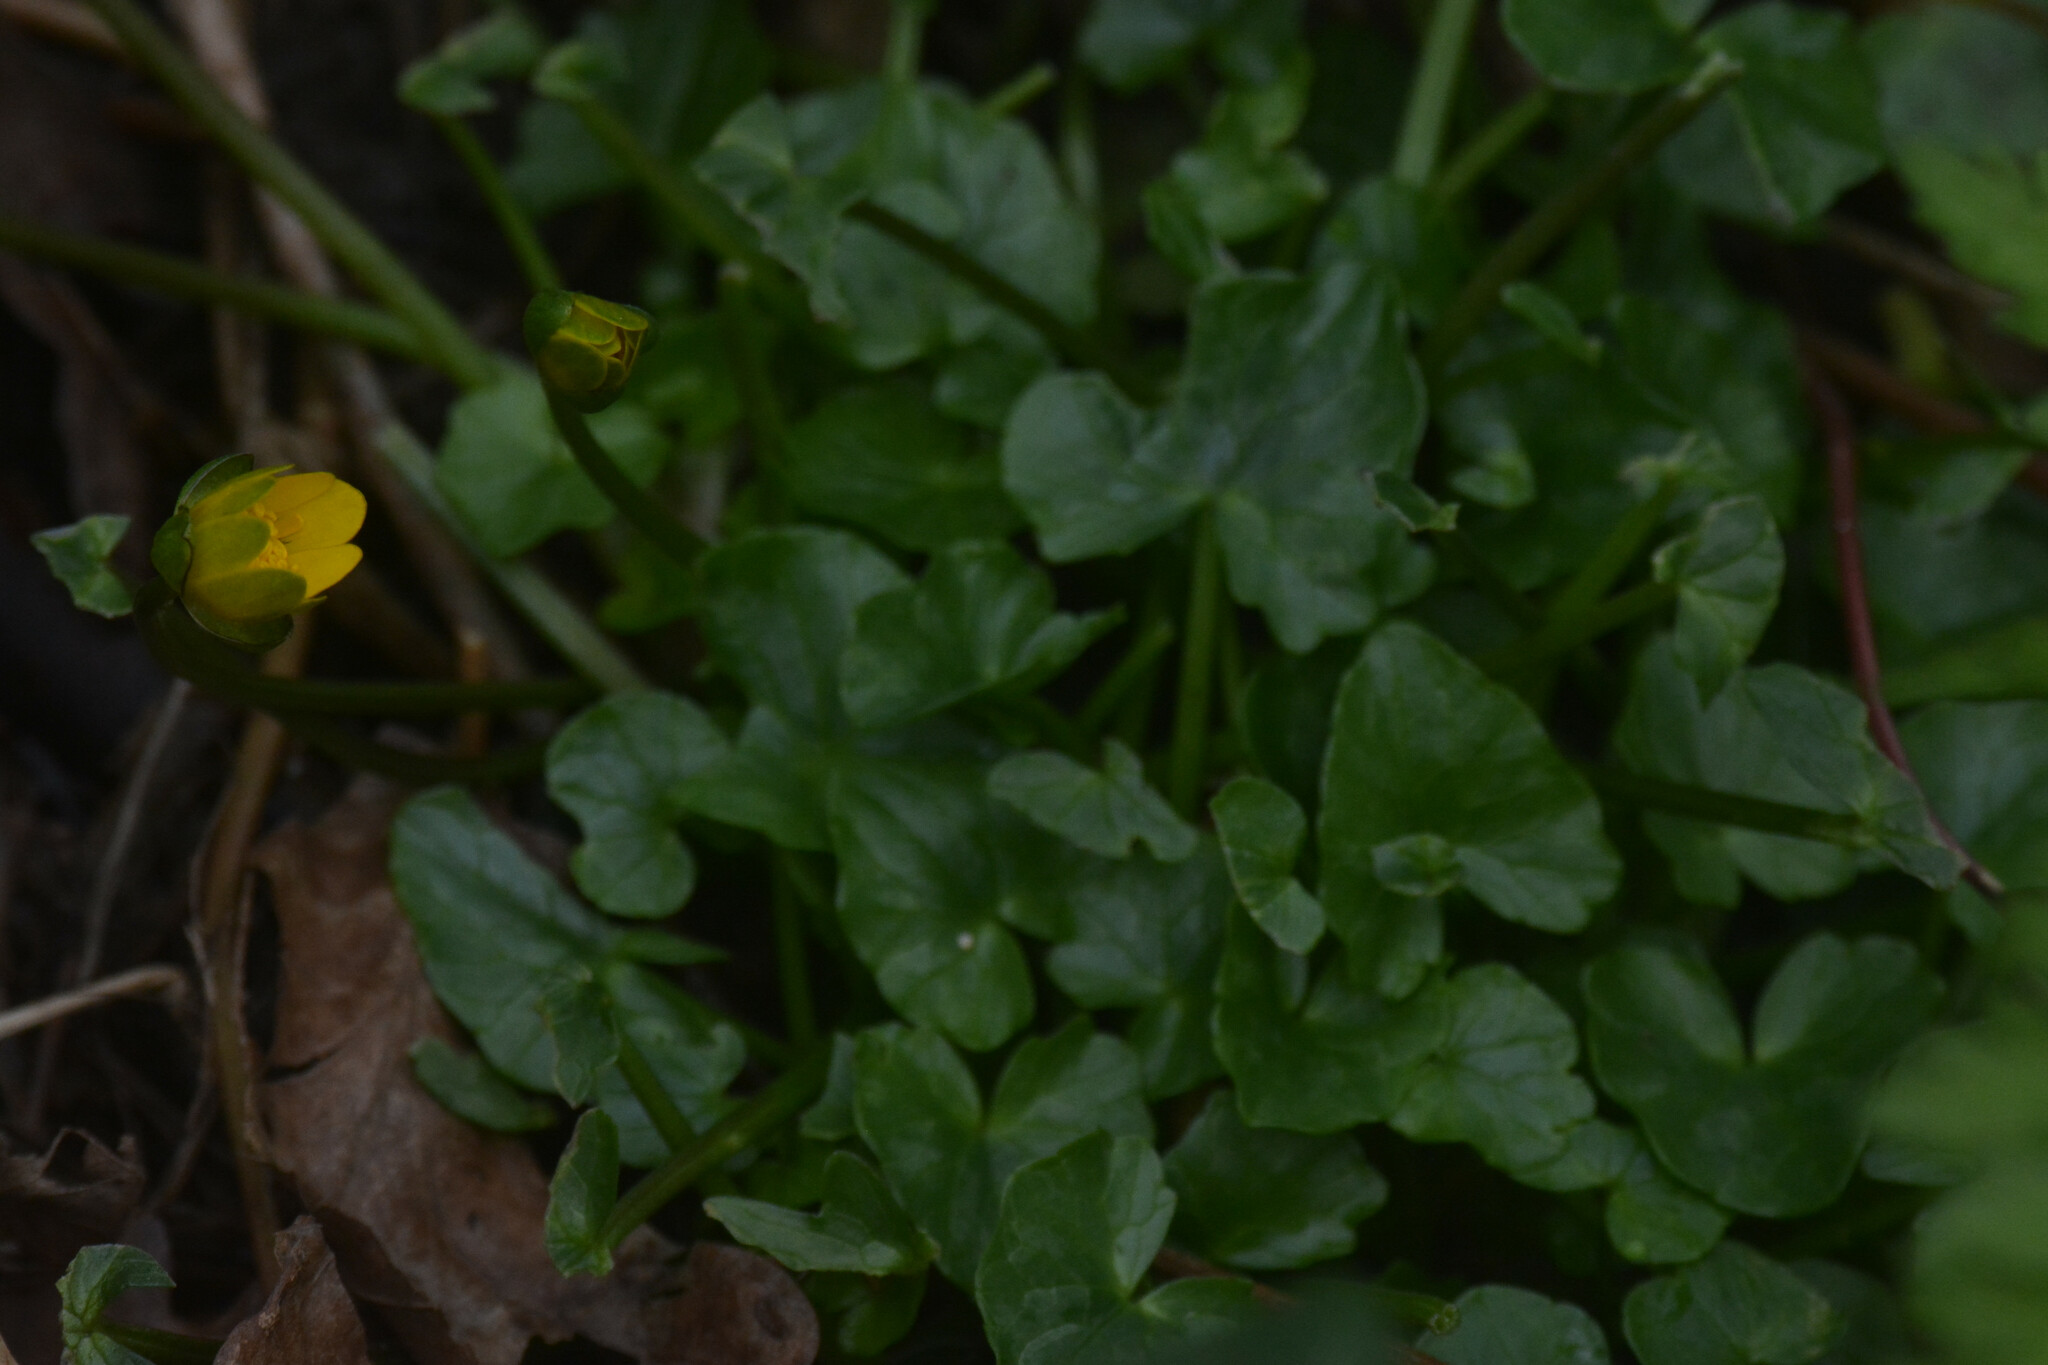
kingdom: Plantae
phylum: Tracheophyta
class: Magnoliopsida
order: Ranunculales
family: Ranunculaceae
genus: Ficaria
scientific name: Ficaria verna
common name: Lesser celandine
